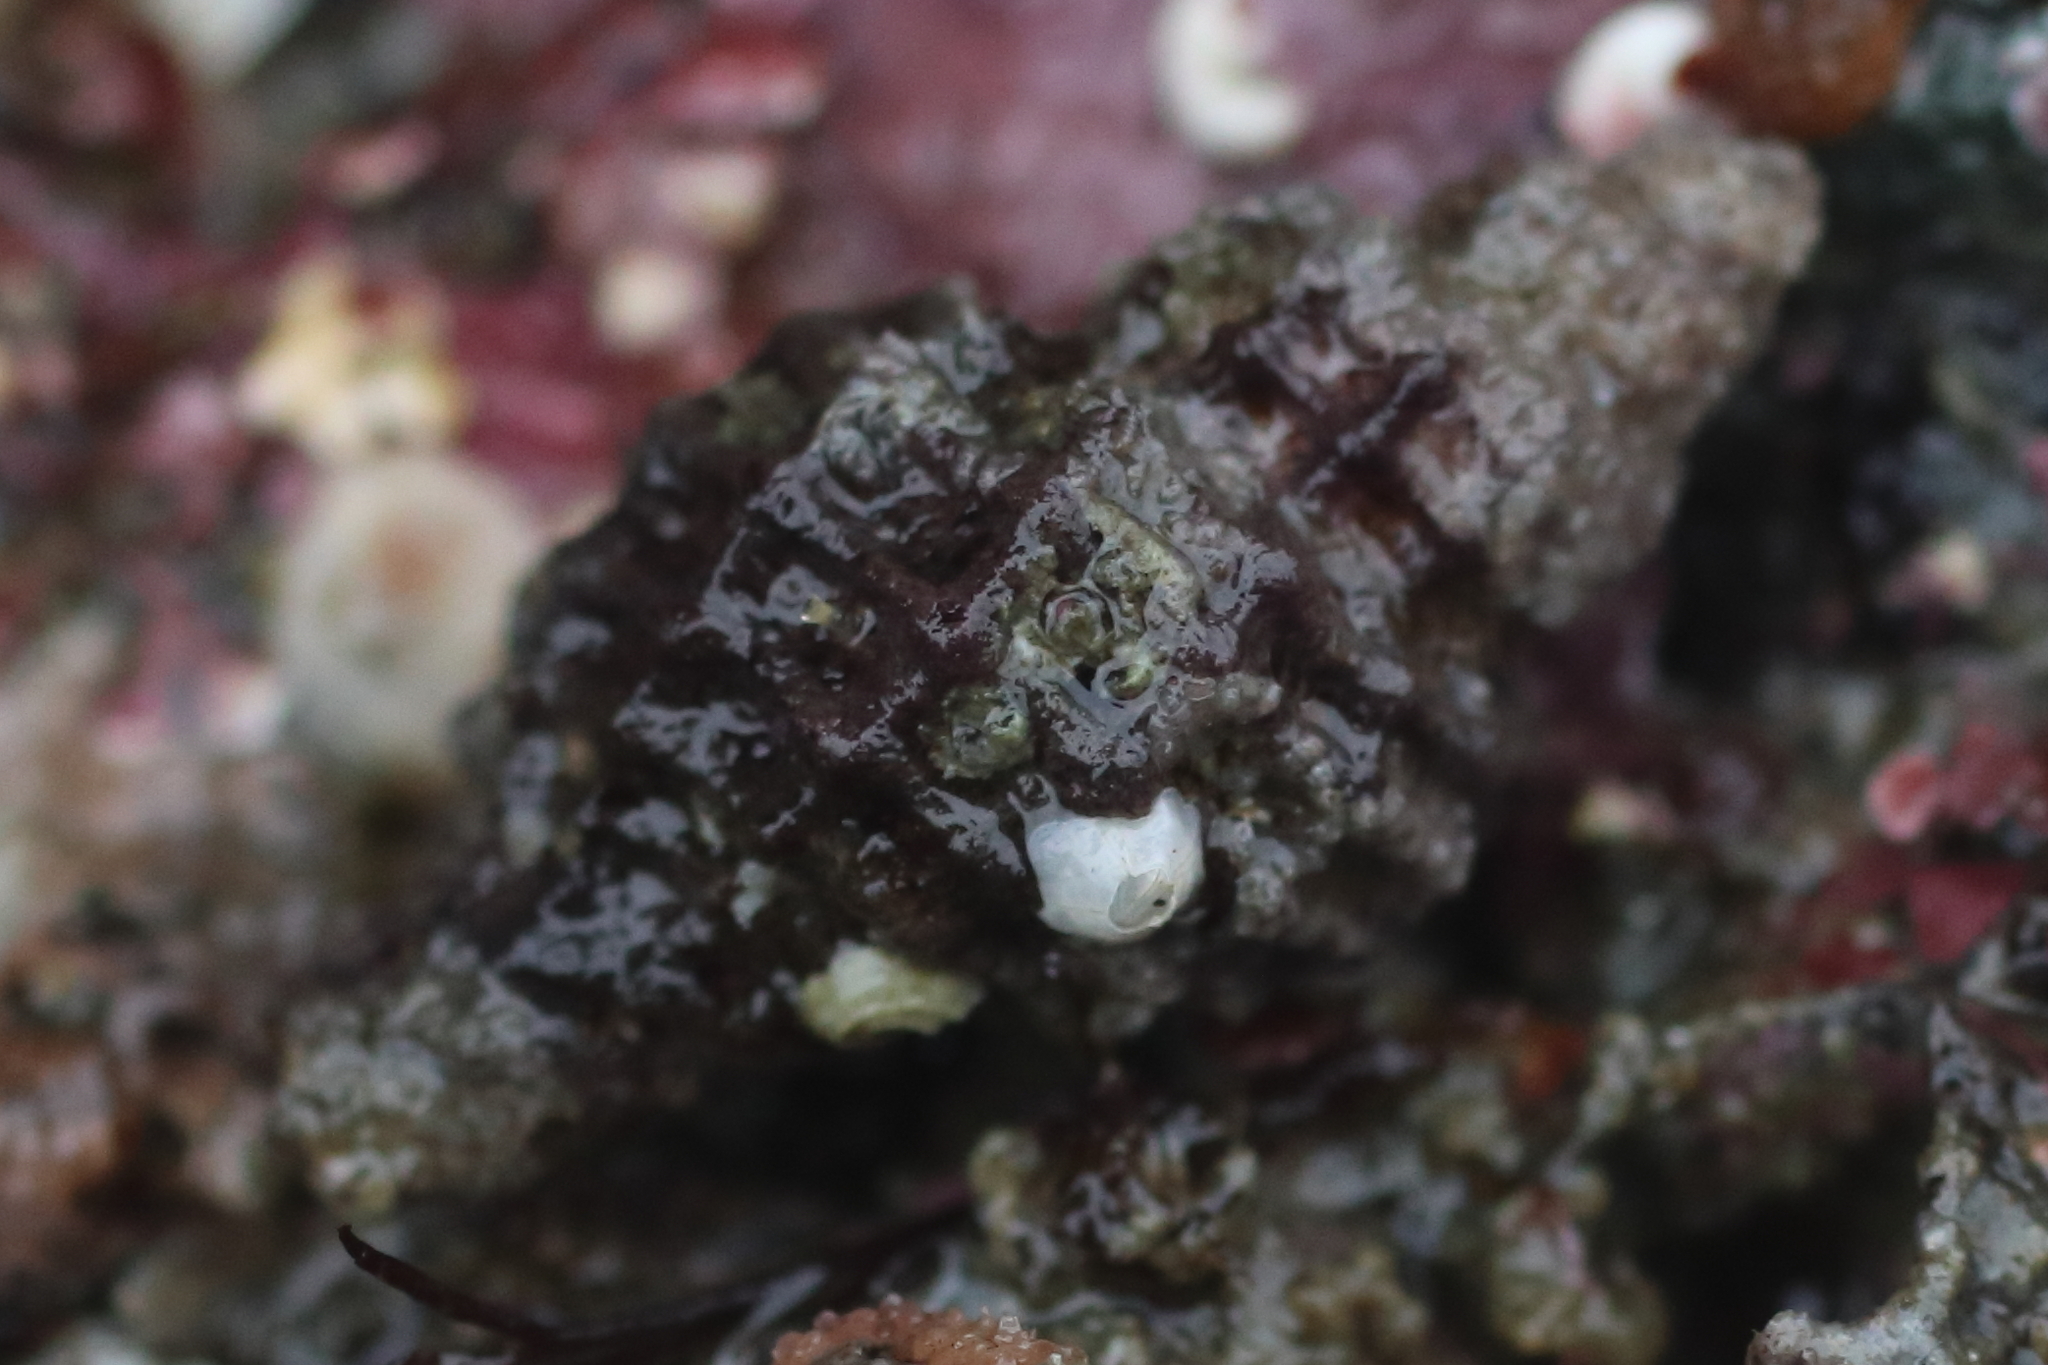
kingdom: Animalia
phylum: Mollusca
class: Gastropoda
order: Neogastropoda
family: Muricidae
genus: Paciocinebrina
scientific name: Paciocinebrina interfossa
